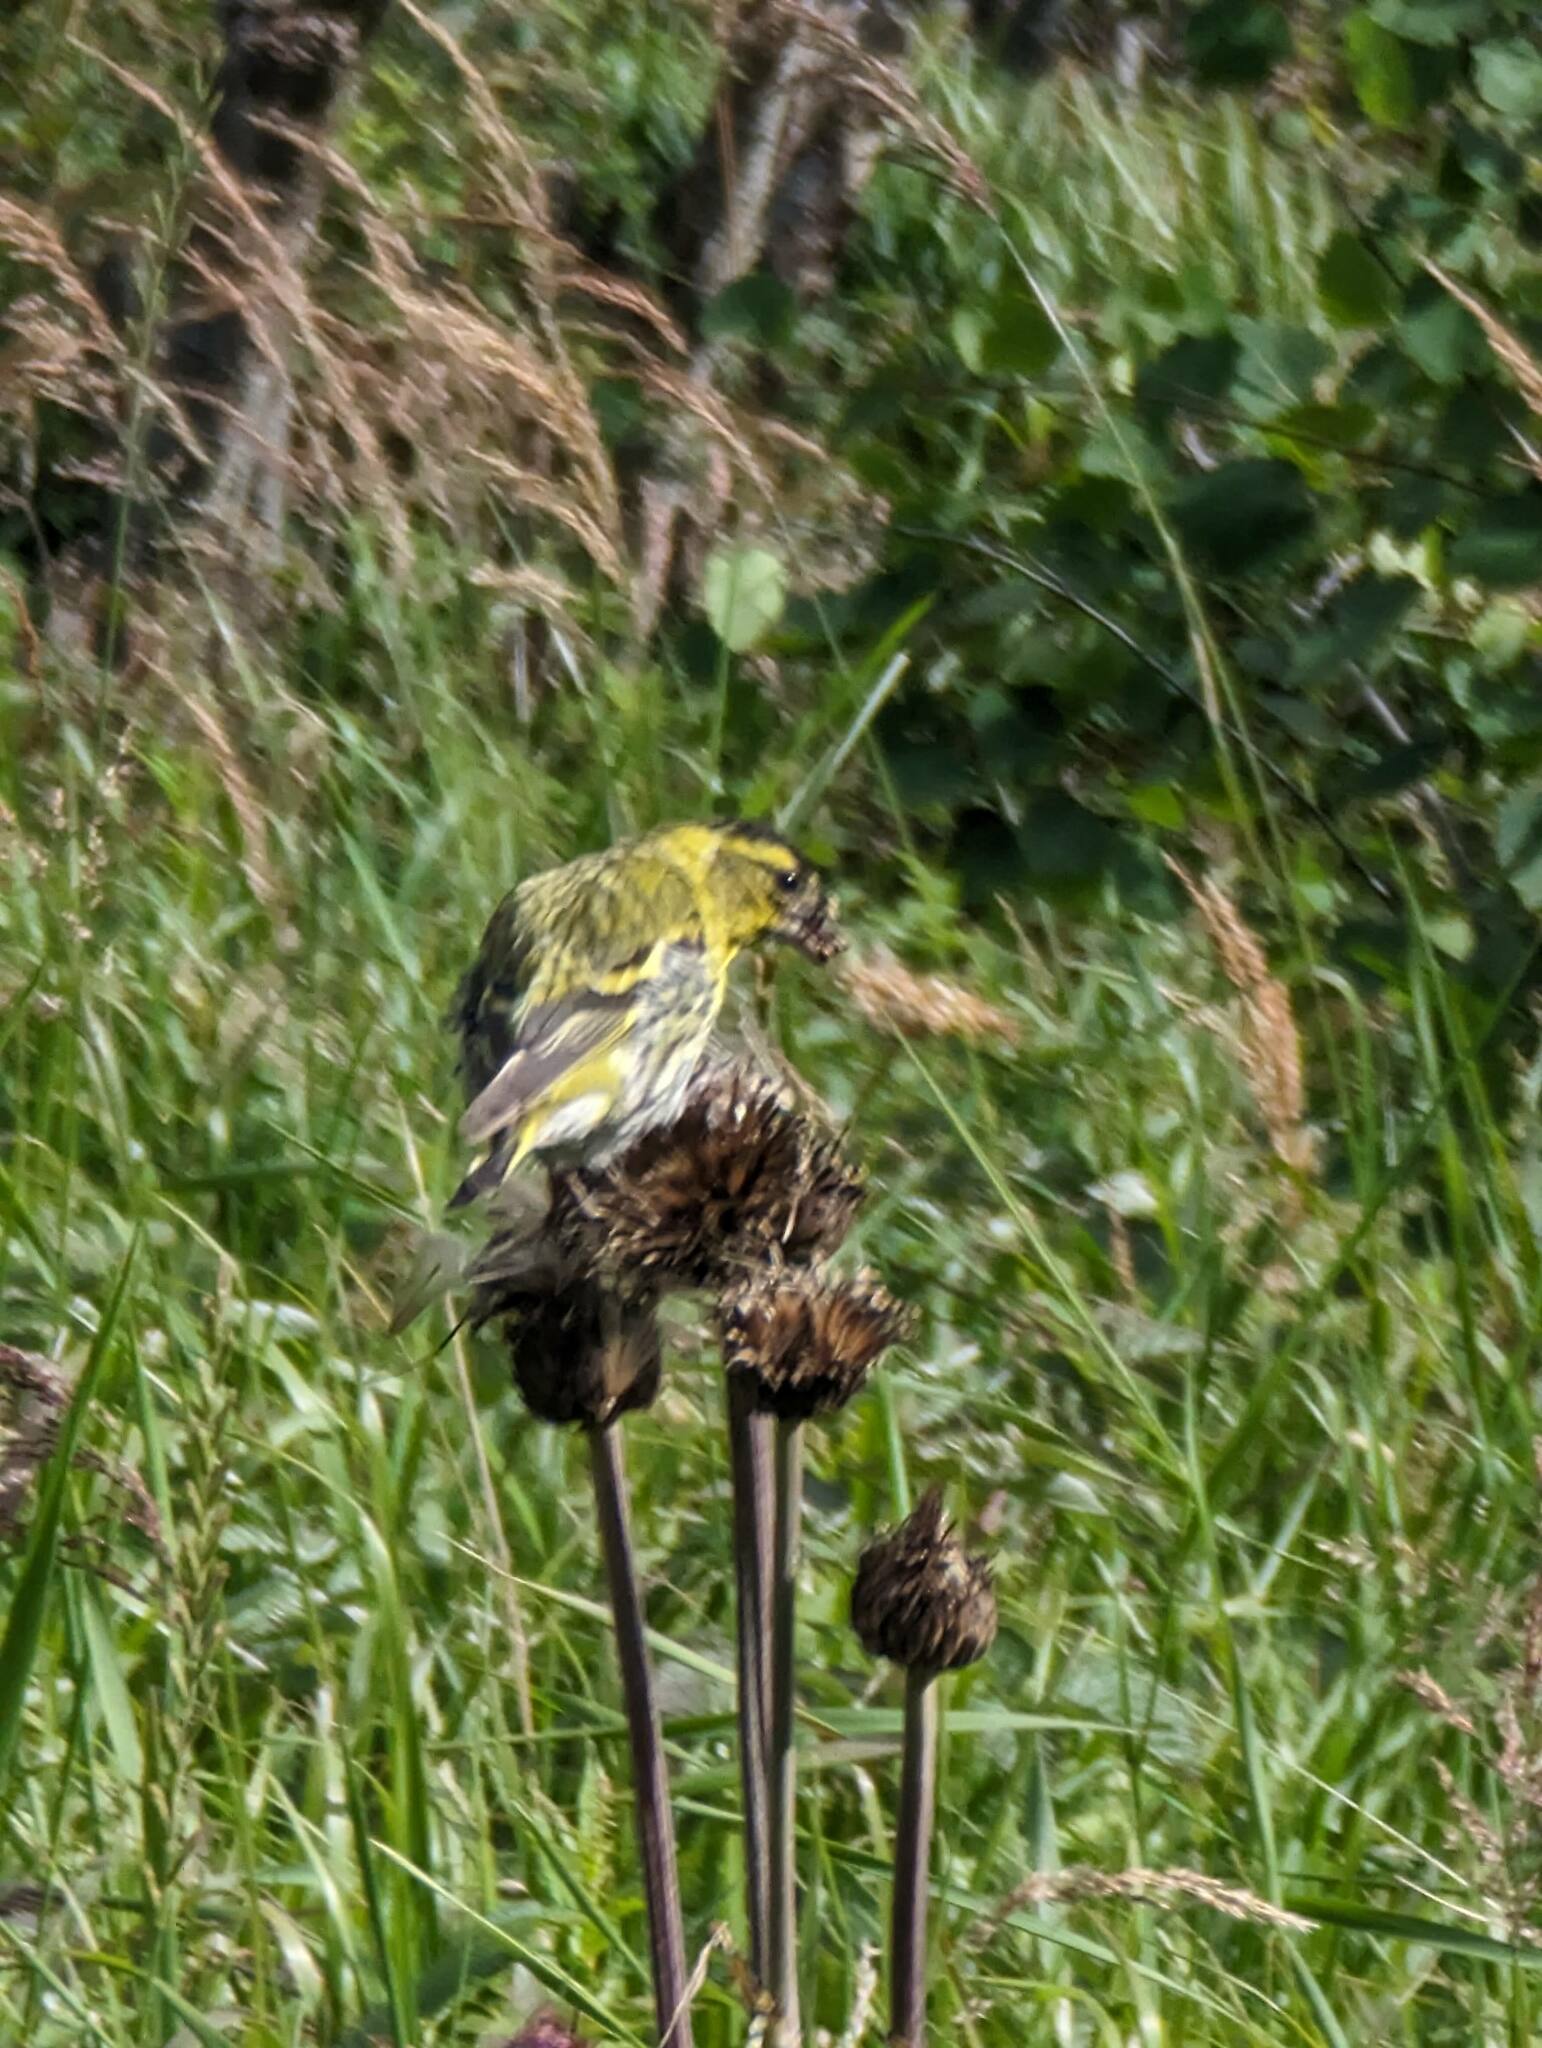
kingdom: Animalia
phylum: Chordata
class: Aves
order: Passeriformes
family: Fringillidae
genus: Spinus
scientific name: Spinus spinus
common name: Eurasian siskin
